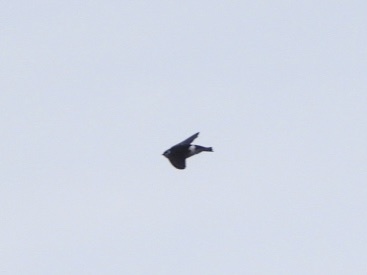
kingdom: Animalia
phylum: Chordata
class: Aves
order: Passeriformes
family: Hirundinidae
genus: Tachycineta
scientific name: Tachycineta thalassina
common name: Violet-green swallow
